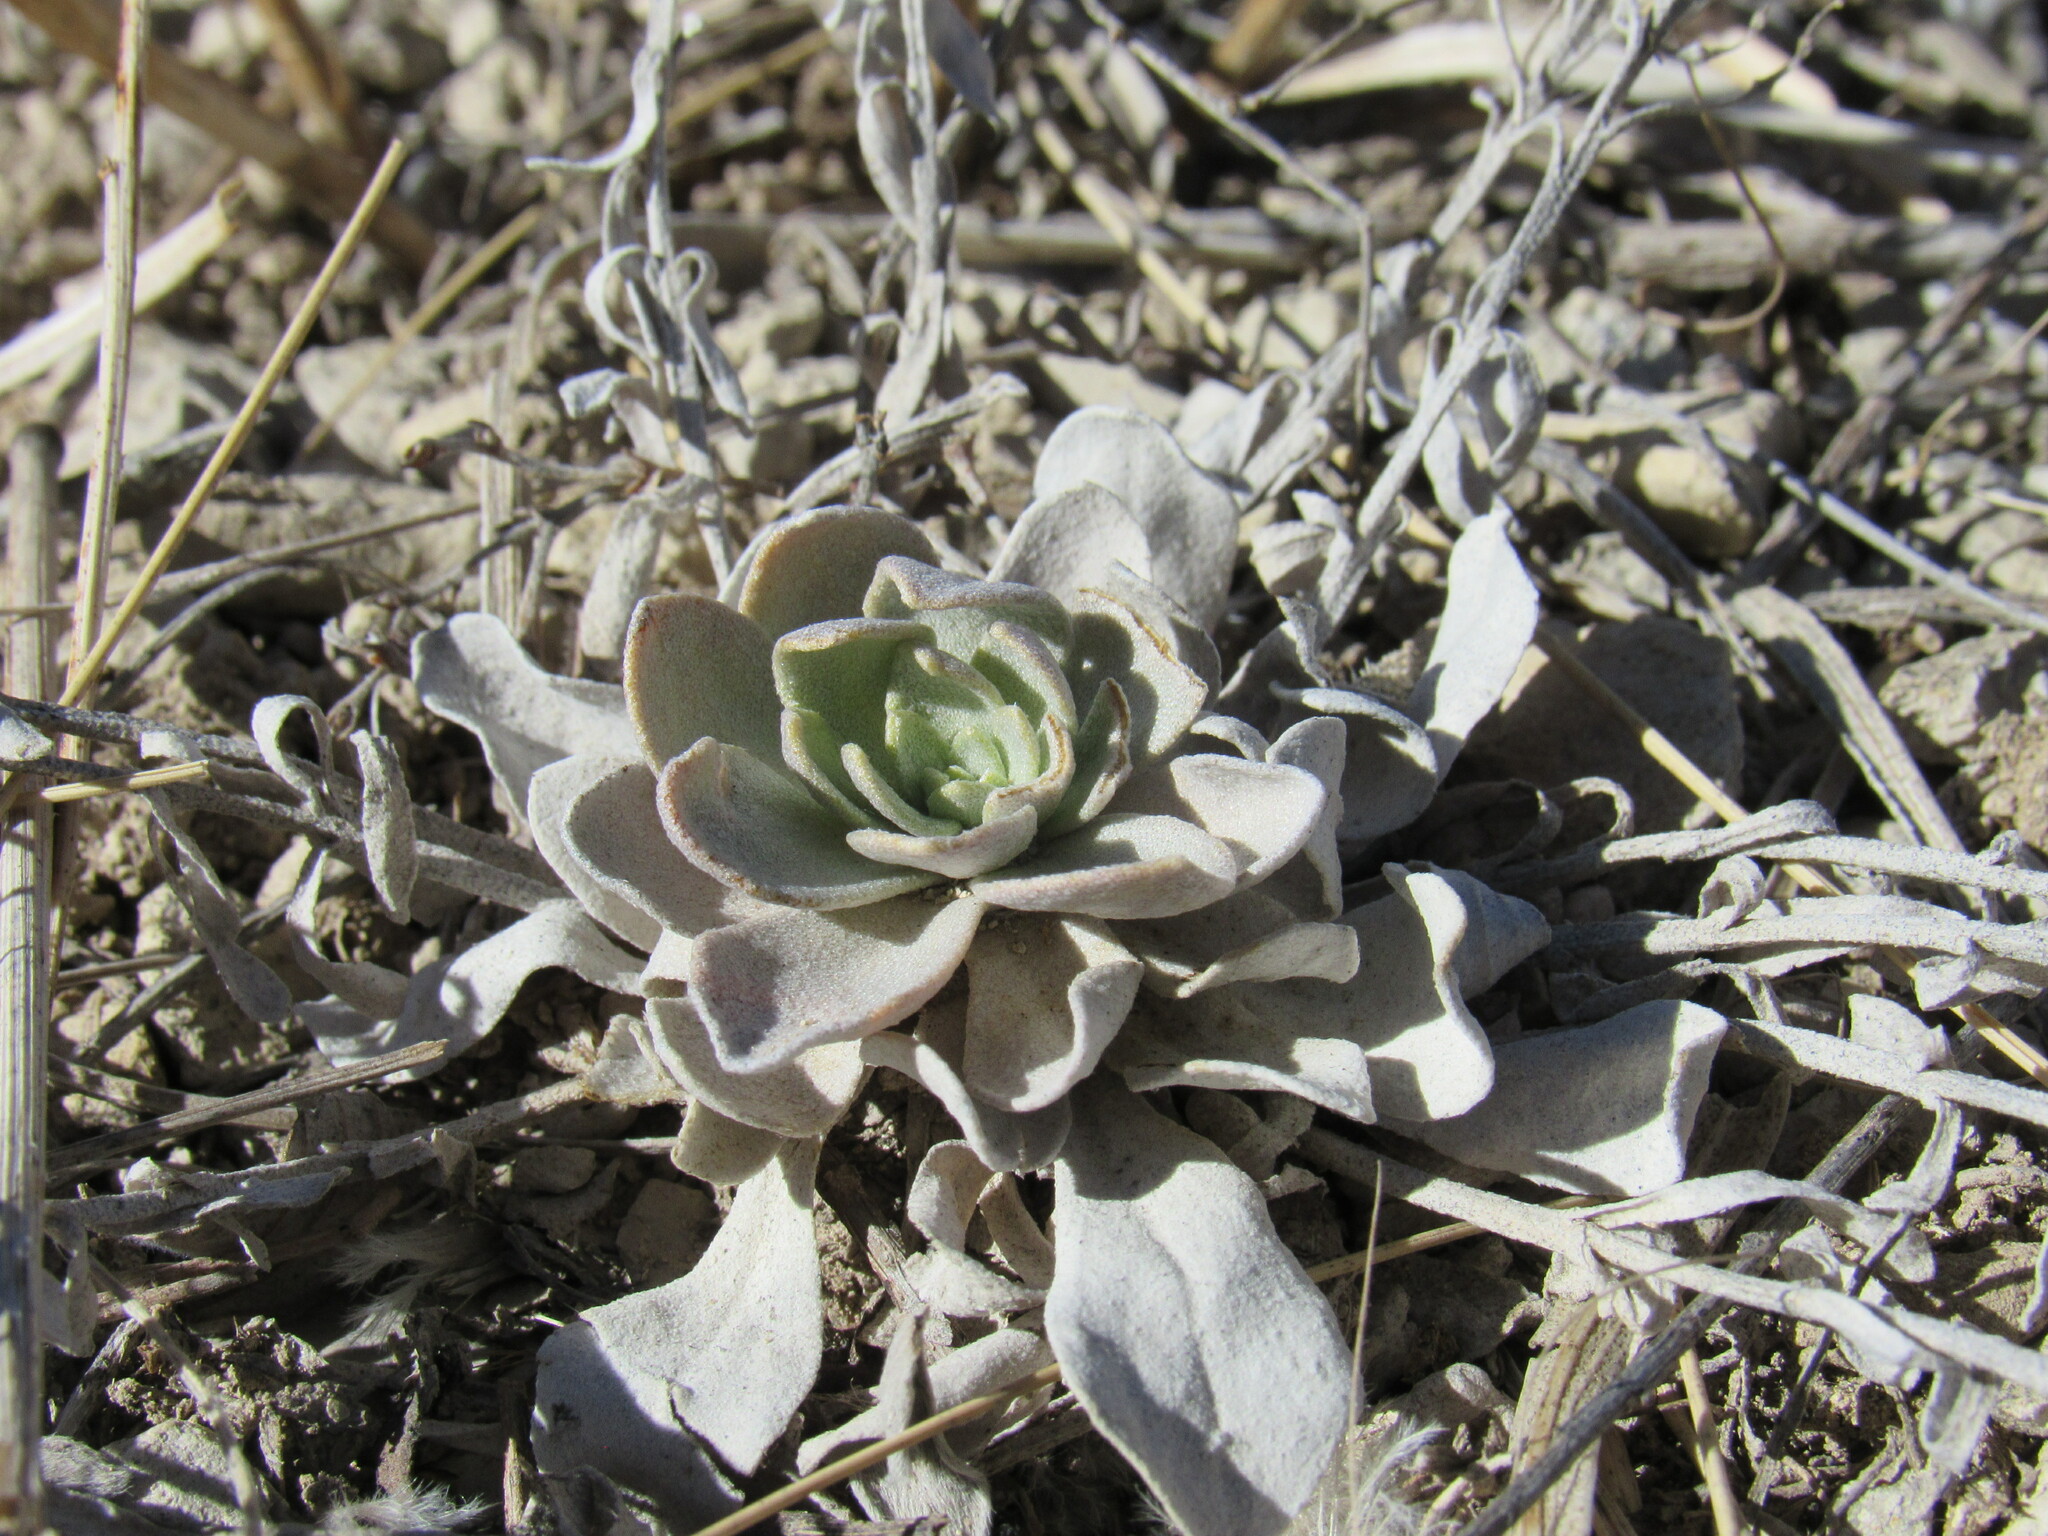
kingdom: Plantae
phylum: Tracheophyta
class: Magnoliopsida
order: Brassicales
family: Brassicaceae
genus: Physaria
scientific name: Physaria bellii
